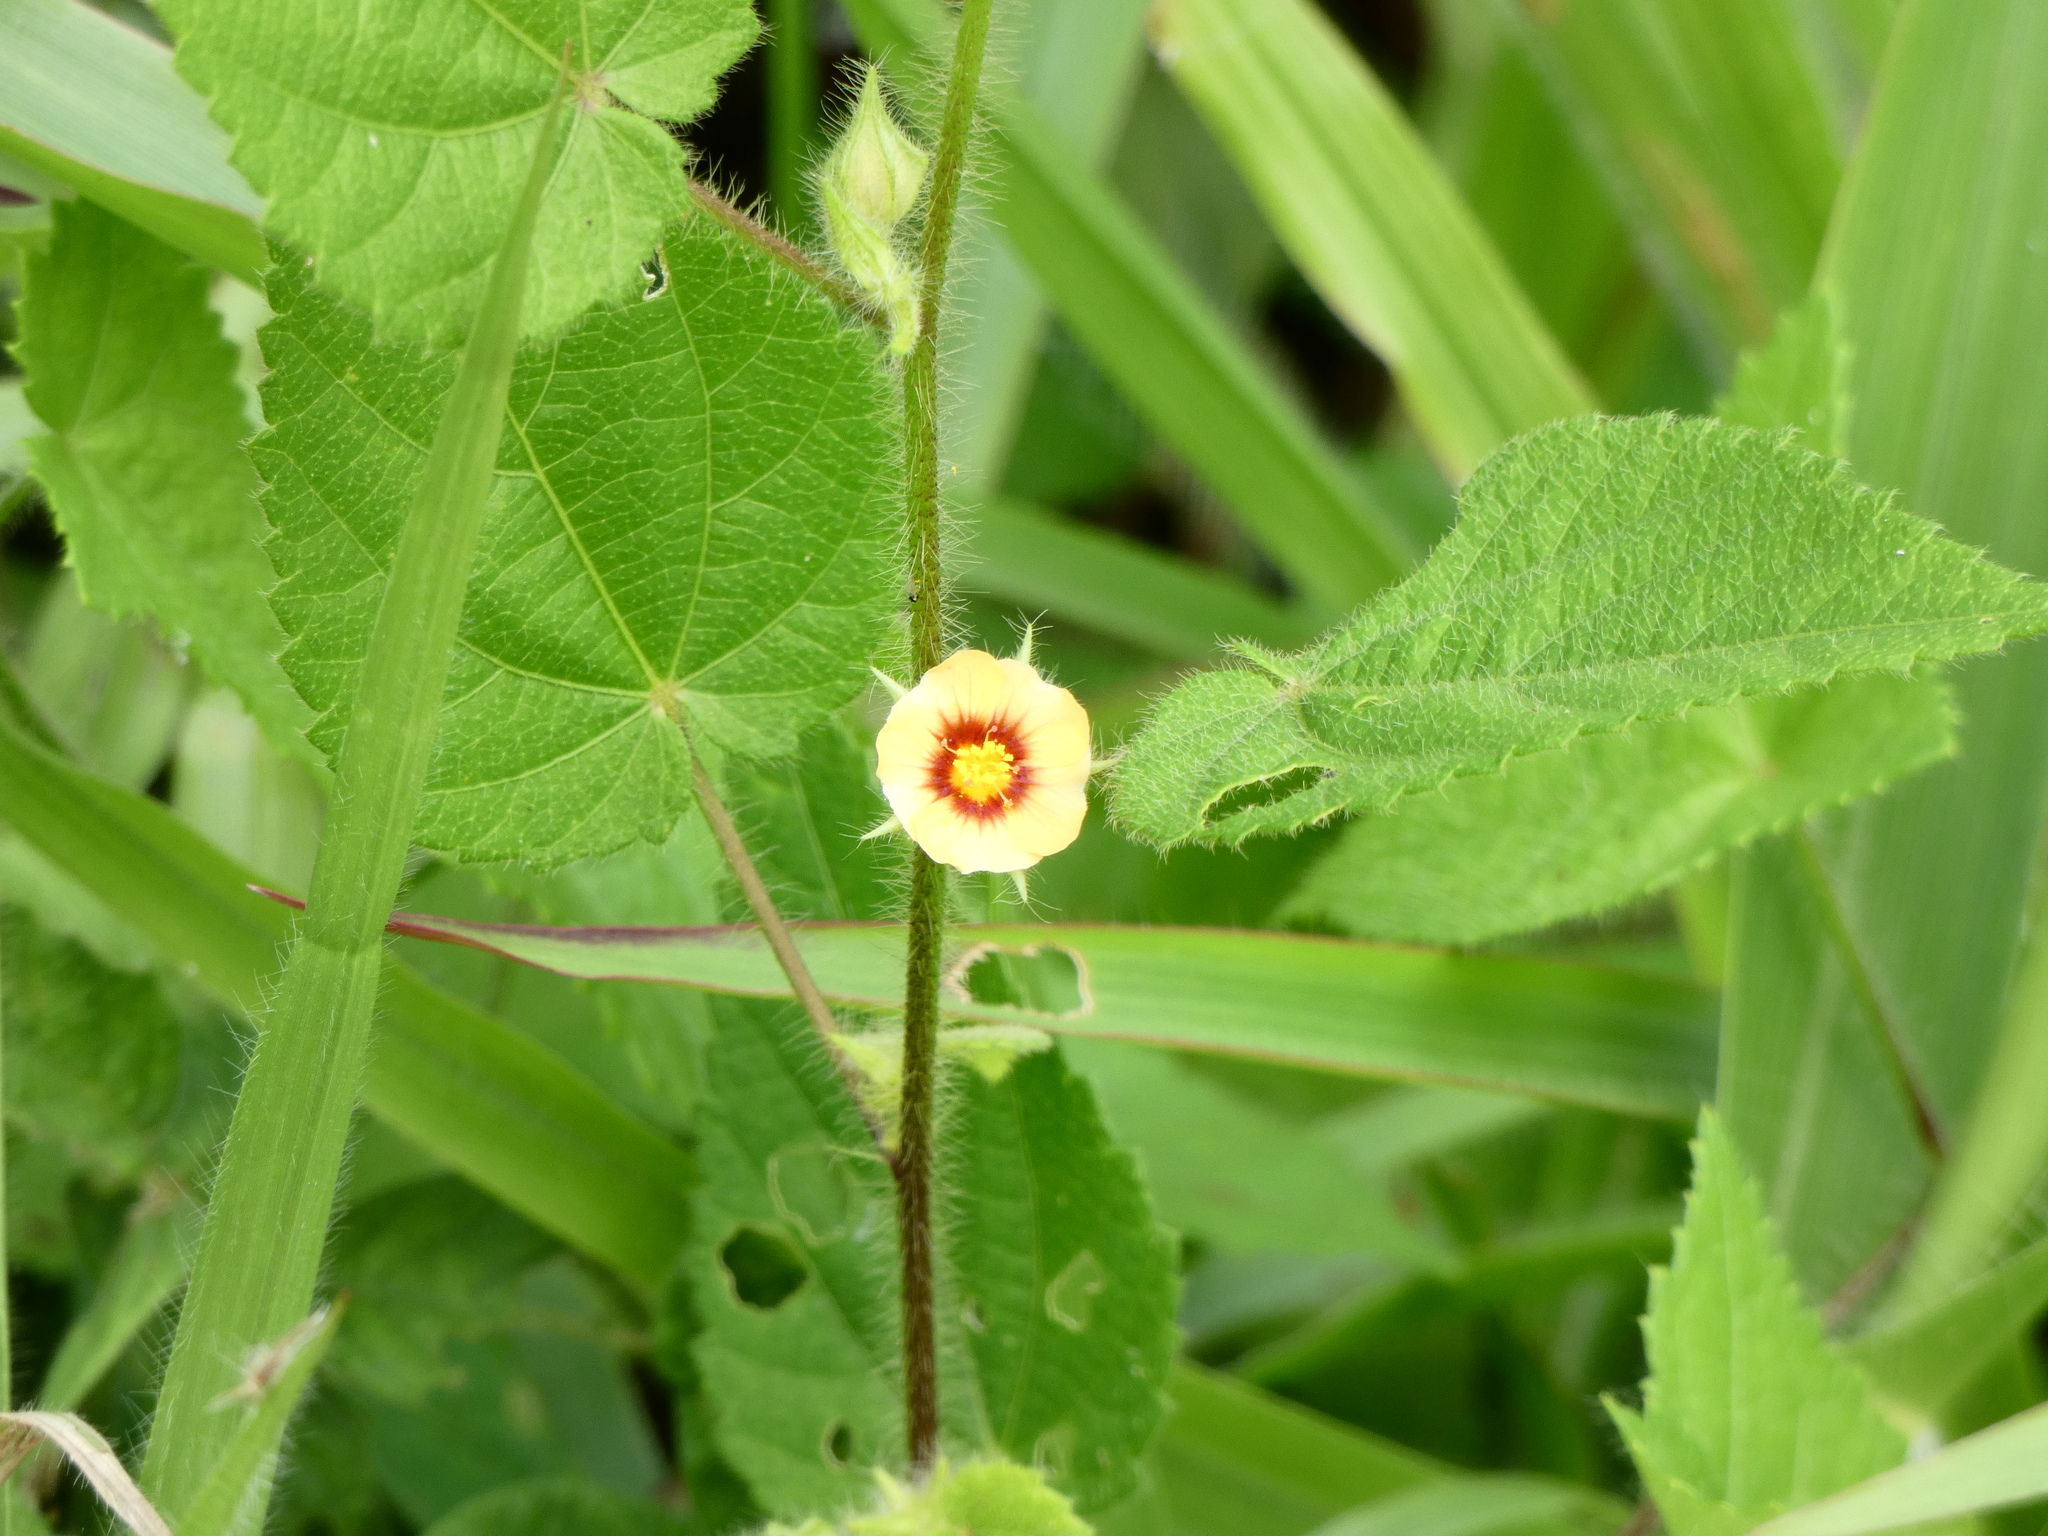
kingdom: Plantae
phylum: Tracheophyta
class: Magnoliopsida
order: Malvales
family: Malvaceae
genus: Sida
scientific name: Sida urens
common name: Tropical fanpetals
